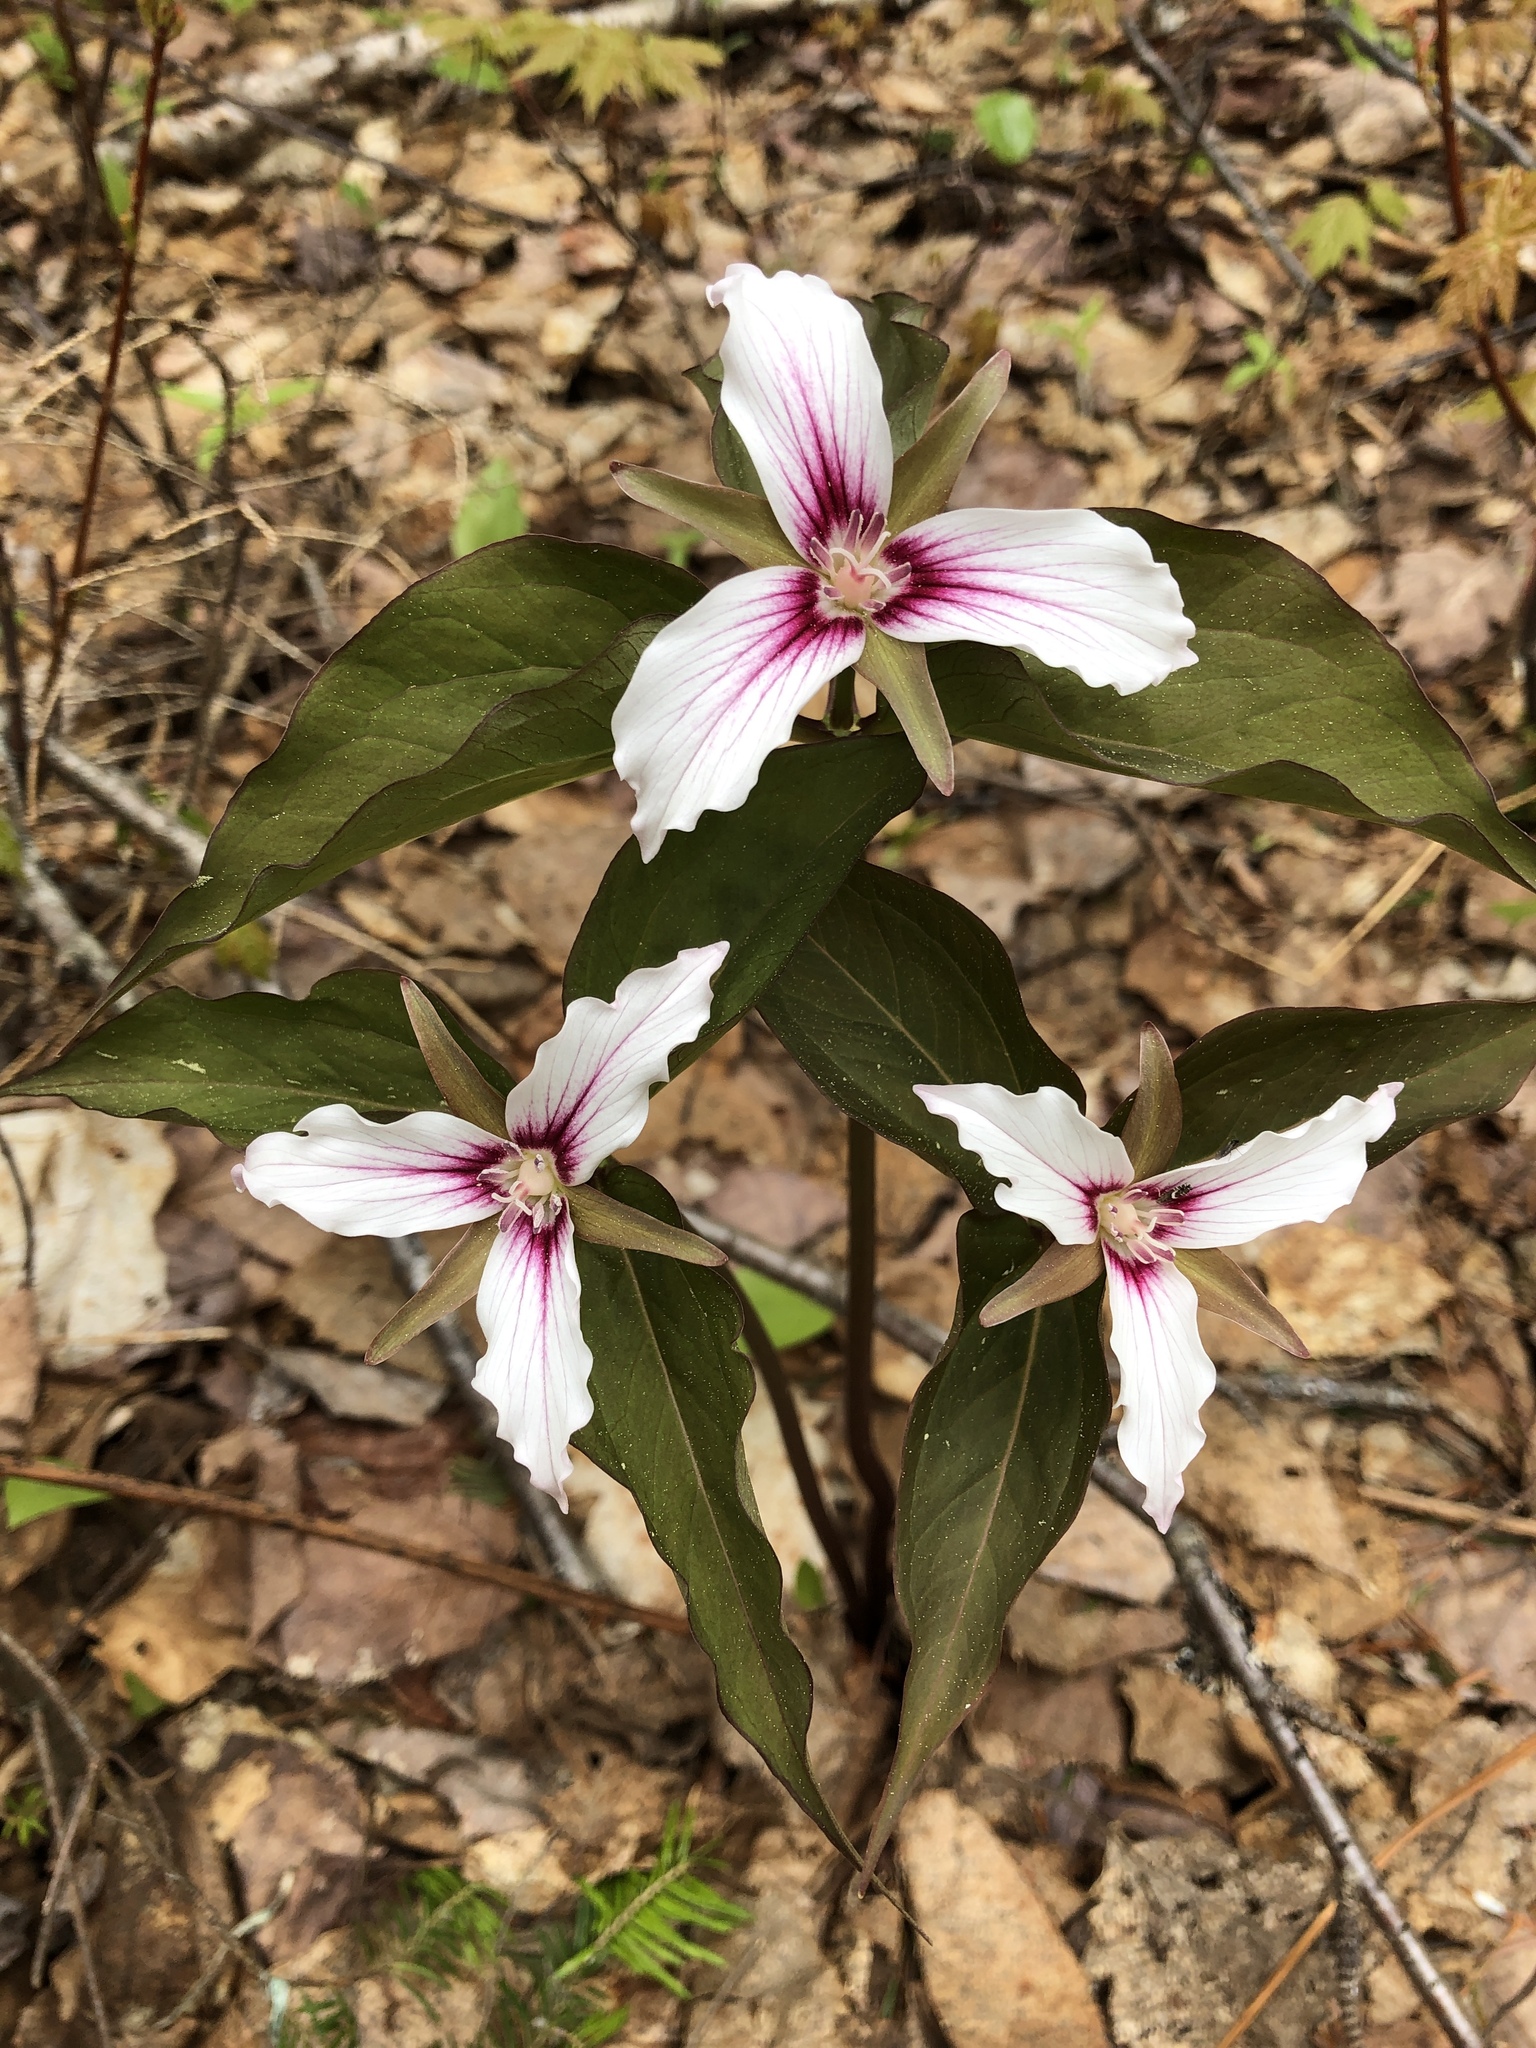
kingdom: Plantae
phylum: Tracheophyta
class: Liliopsida
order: Liliales
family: Melanthiaceae
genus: Trillium
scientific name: Trillium undulatum
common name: Paint trillium
